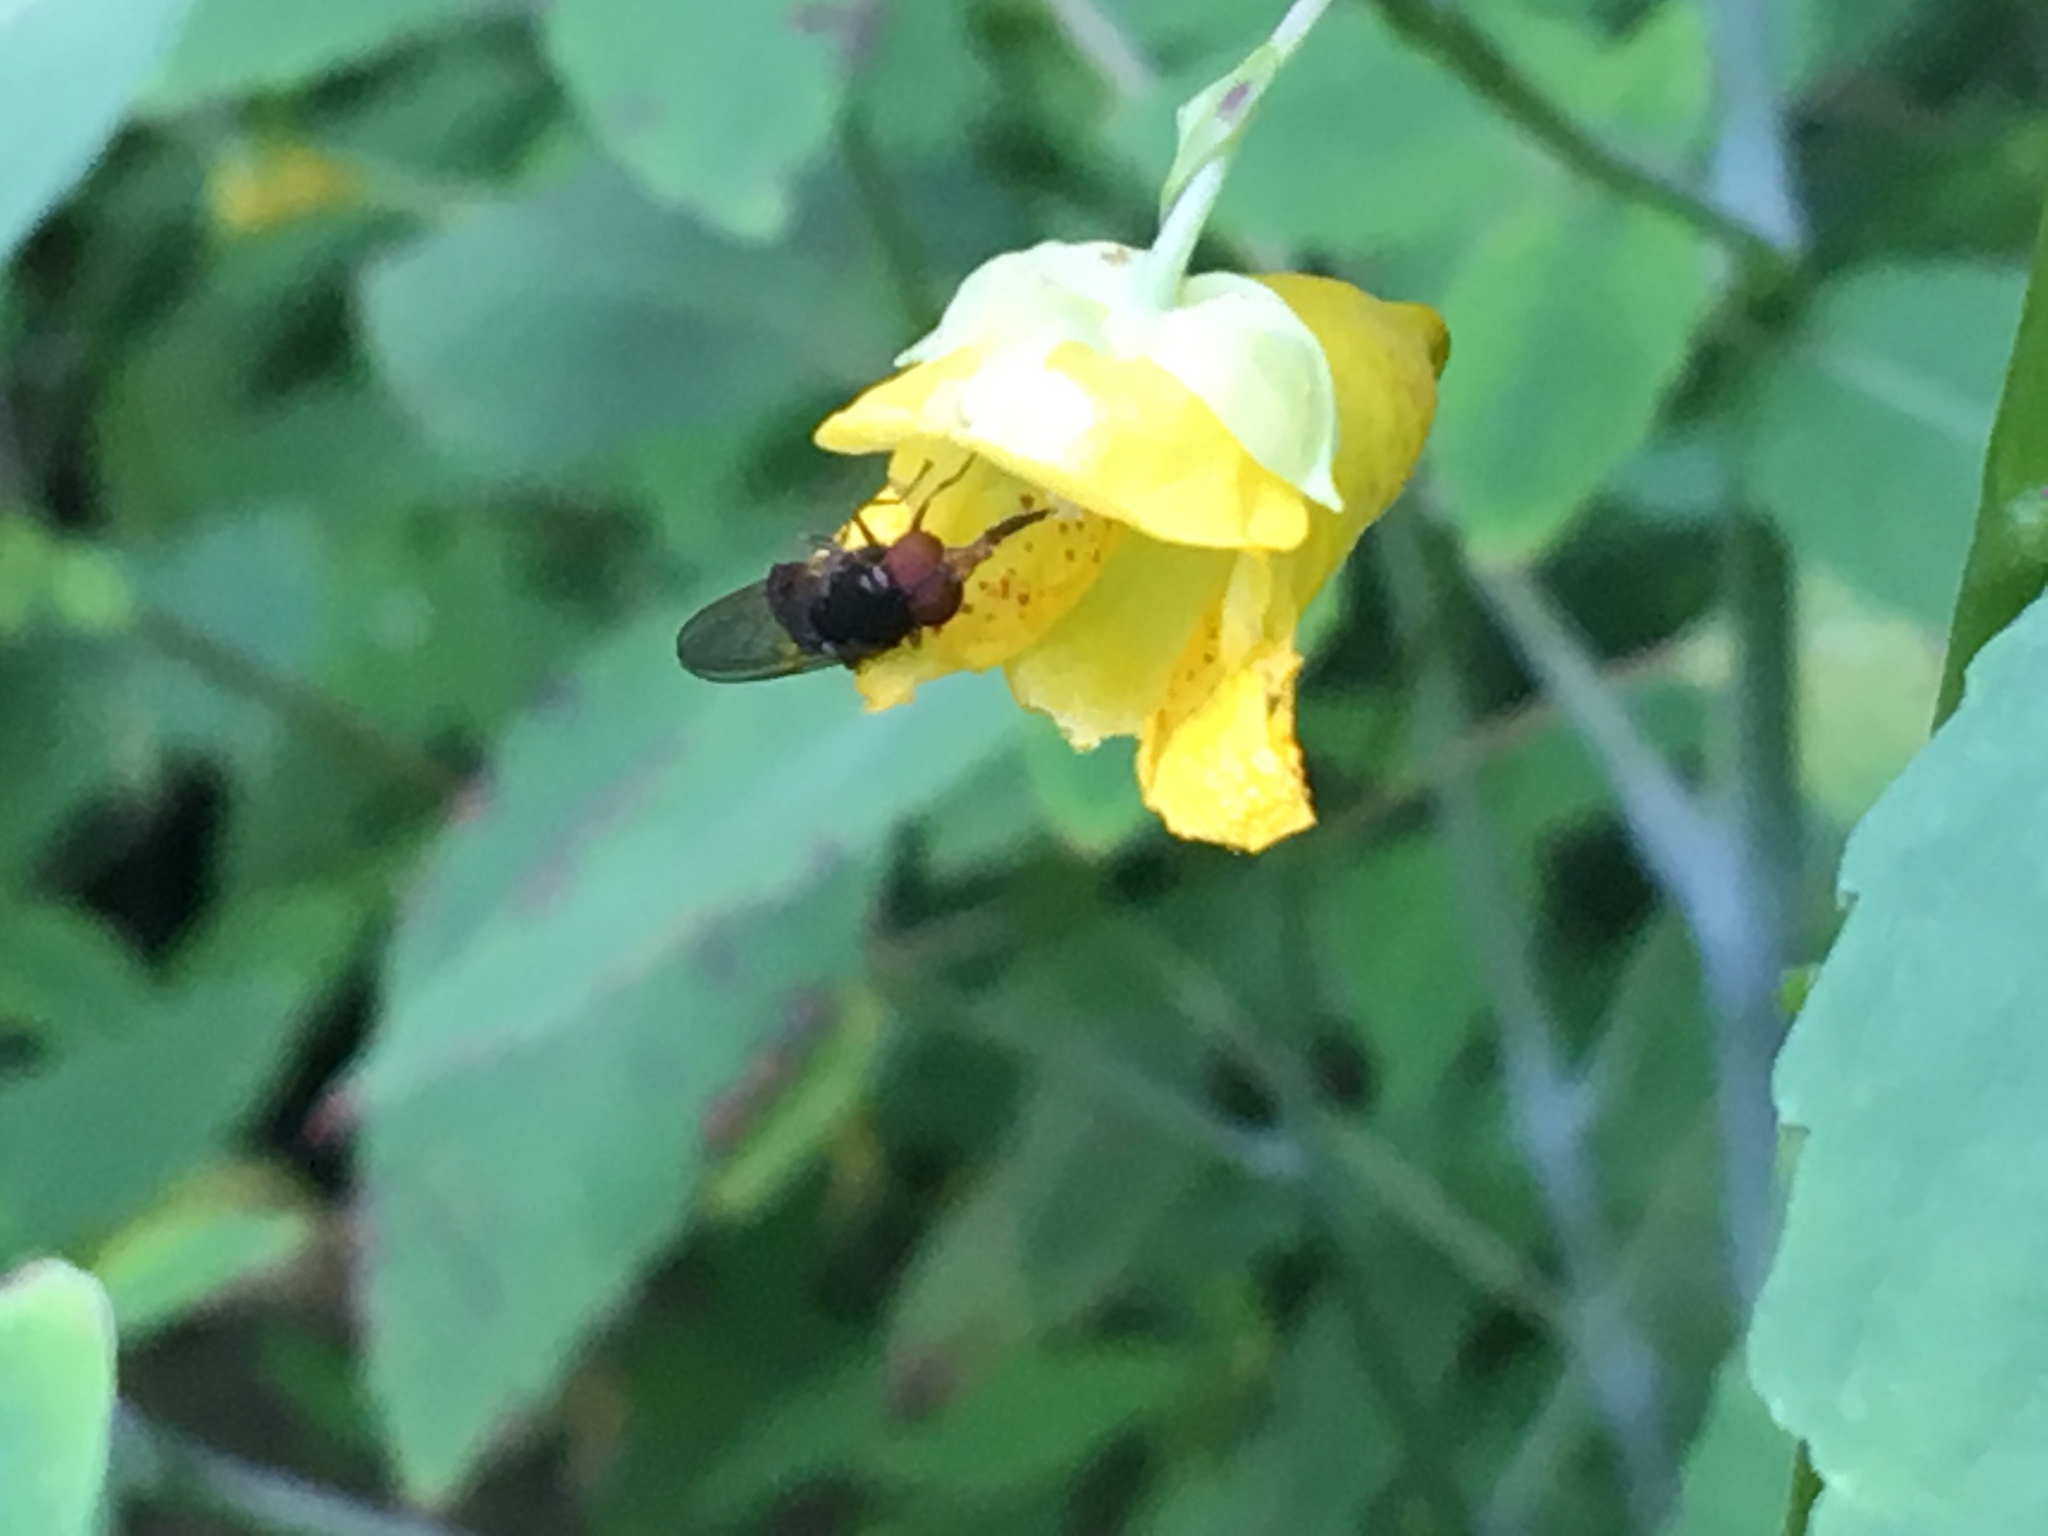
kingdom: Plantae
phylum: Tracheophyta
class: Magnoliopsida
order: Ericales
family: Balsaminaceae
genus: Impatiens
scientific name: Impatiens pallida
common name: Pale snapweed
